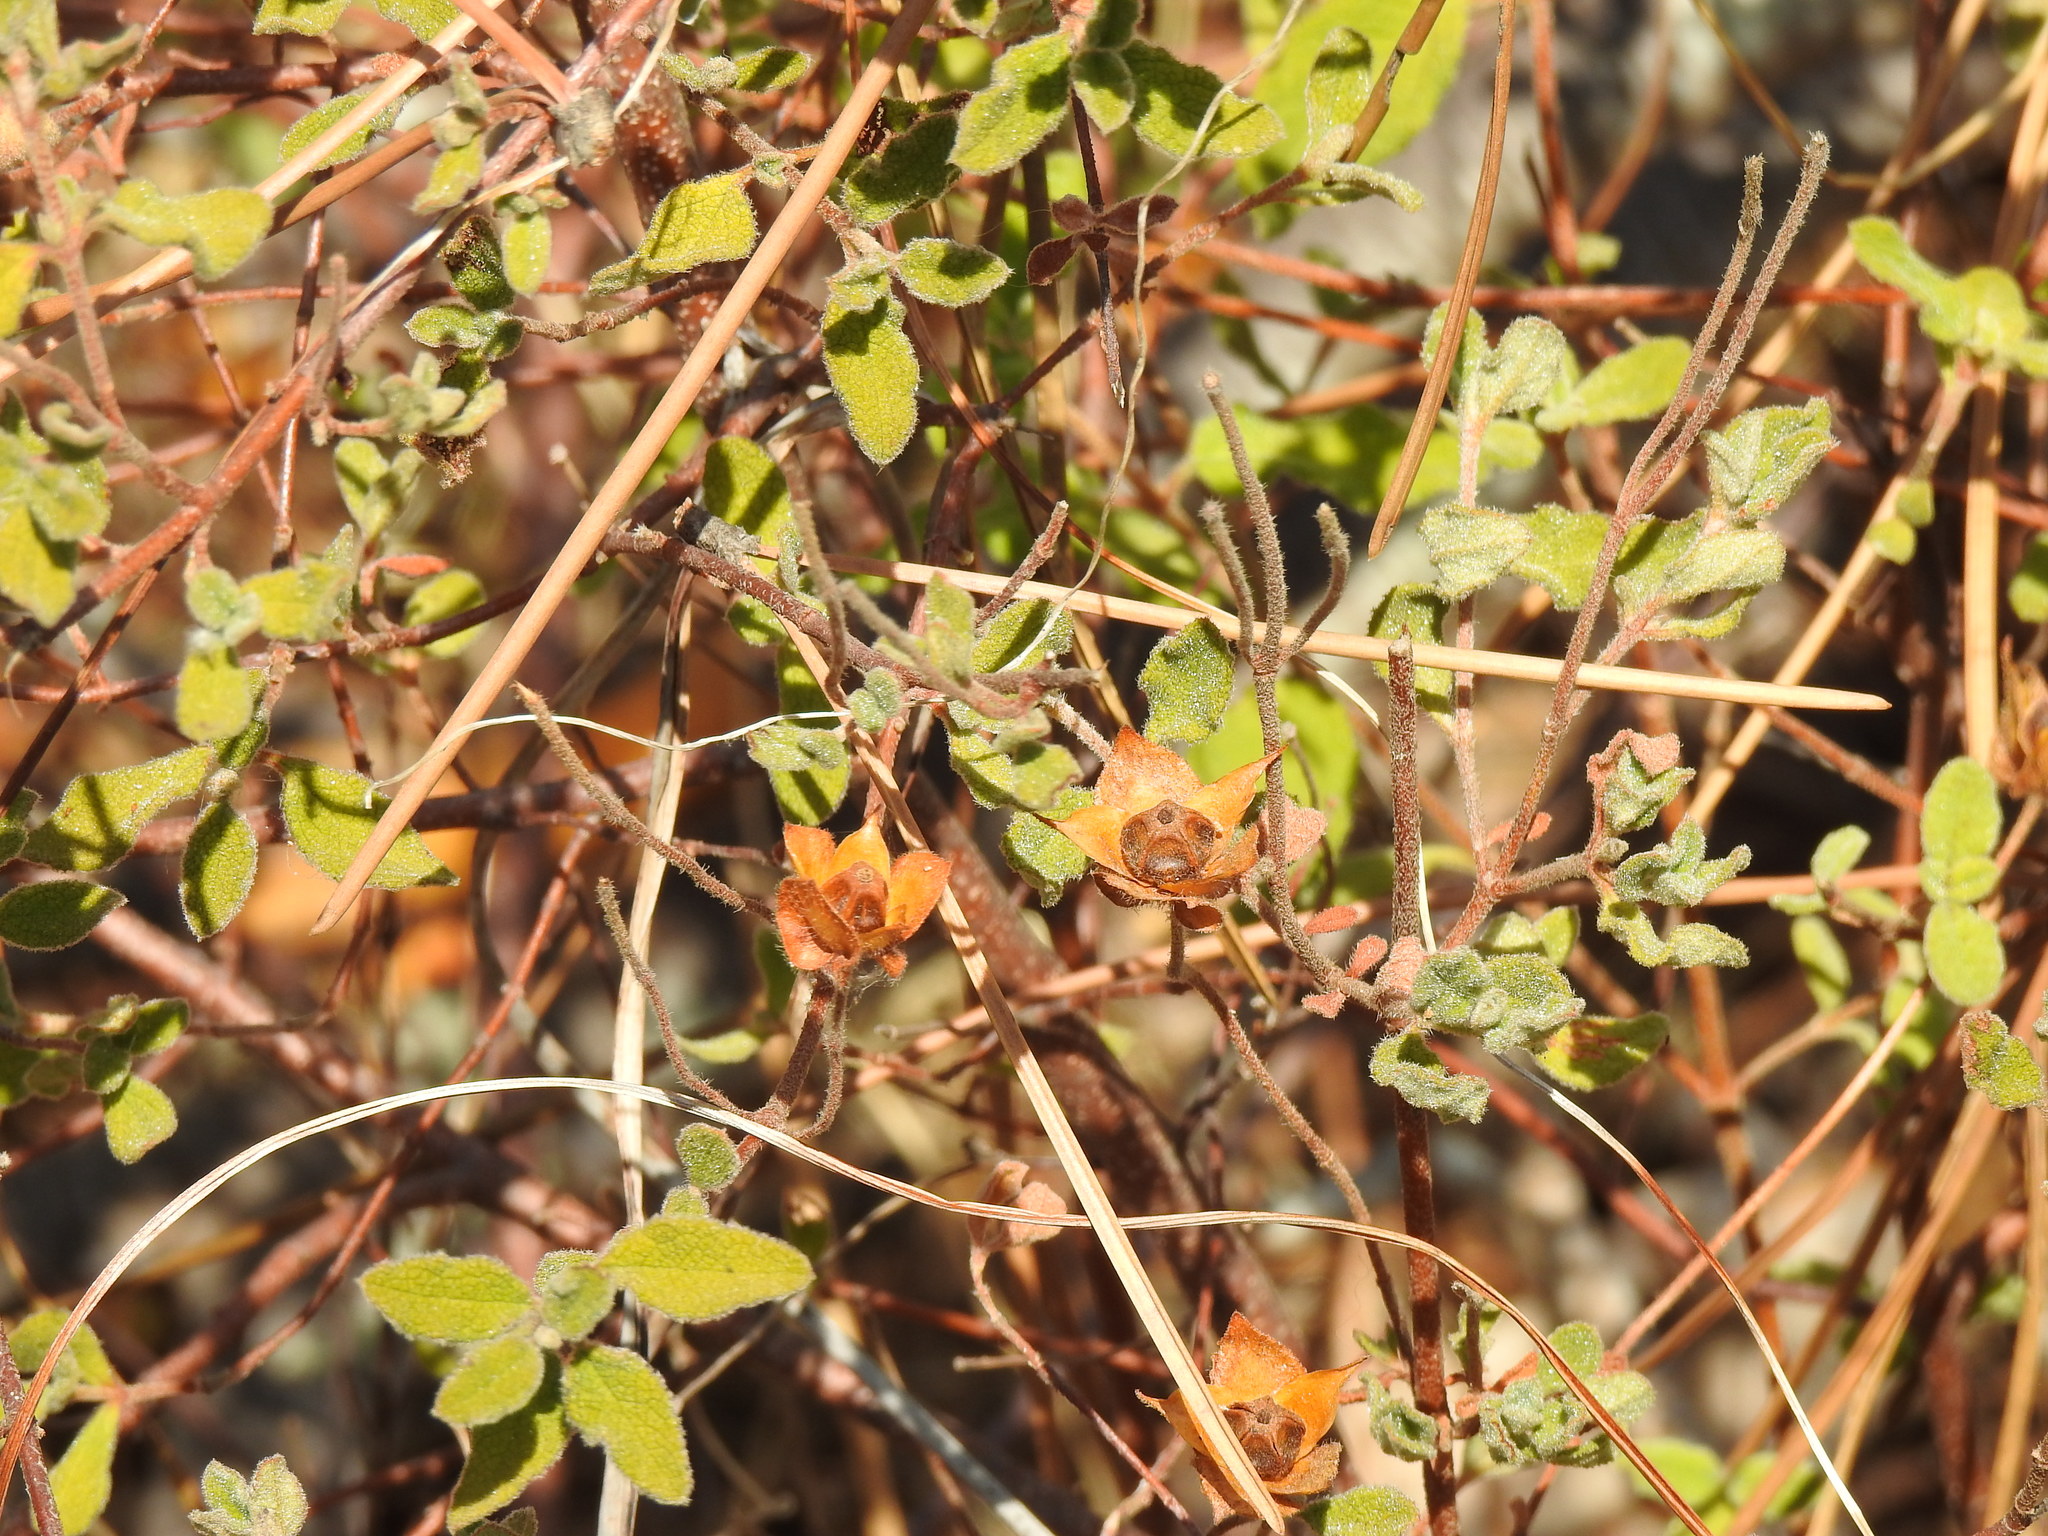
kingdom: Plantae
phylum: Tracheophyta
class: Magnoliopsida
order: Malvales
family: Cistaceae
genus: Cistus
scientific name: Cistus salviifolius
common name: Salvia cistus
